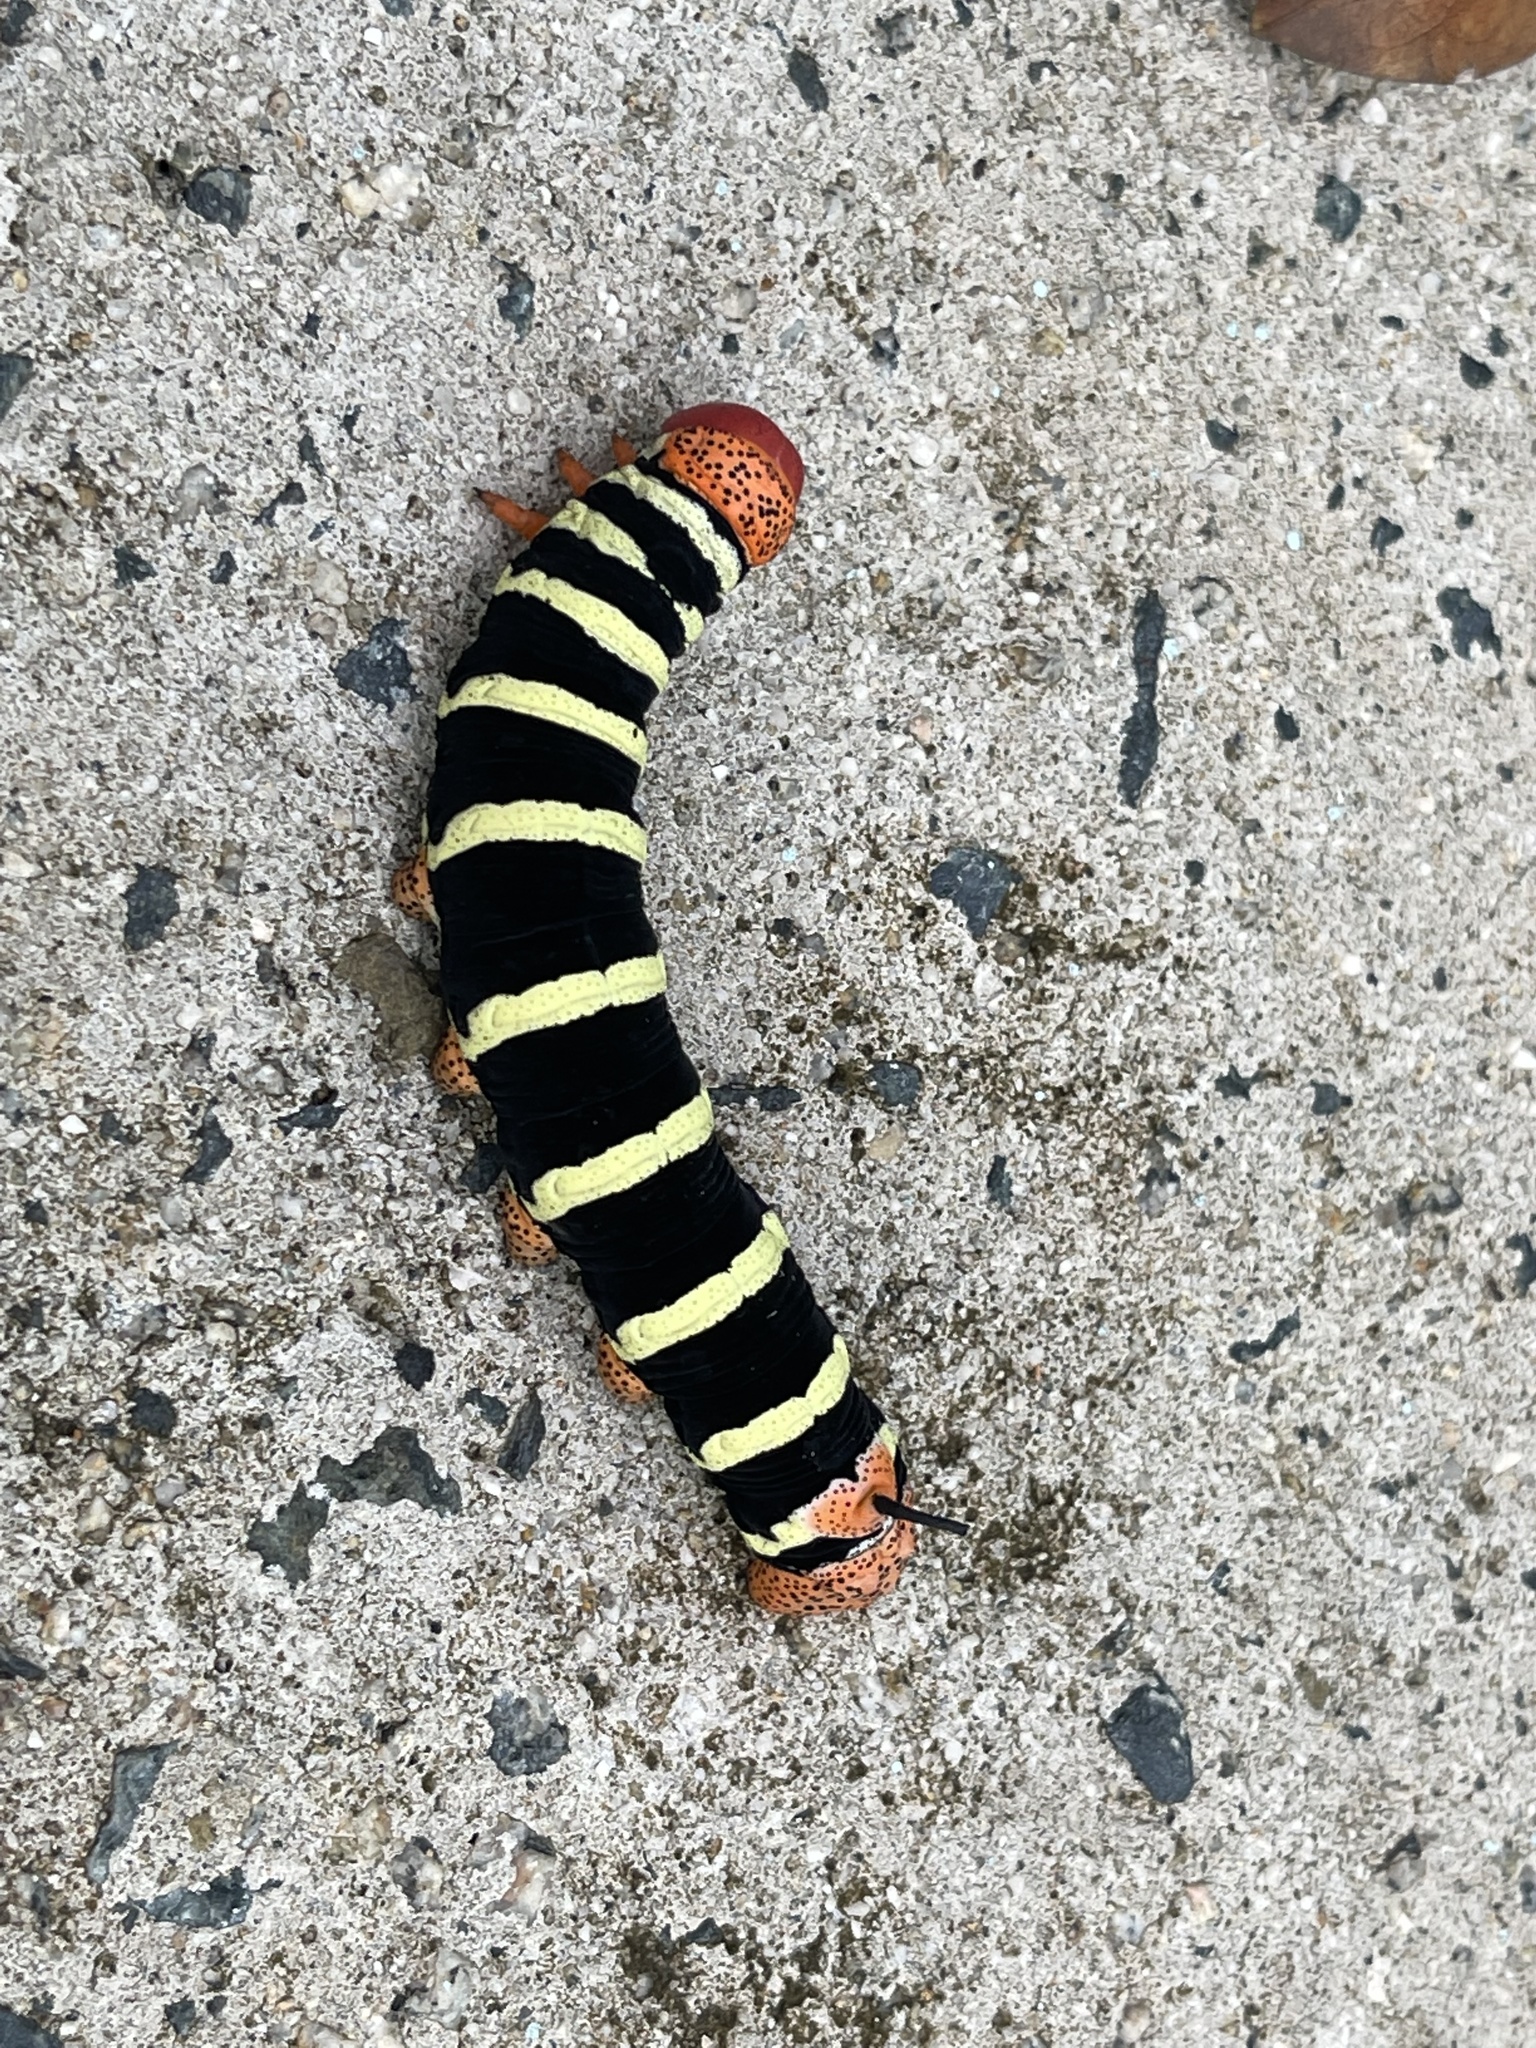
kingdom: Animalia
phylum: Arthropoda
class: Insecta
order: Lepidoptera
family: Sphingidae
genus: Pseudosphinx
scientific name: Pseudosphinx tetrio
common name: Tetrio sphinx
